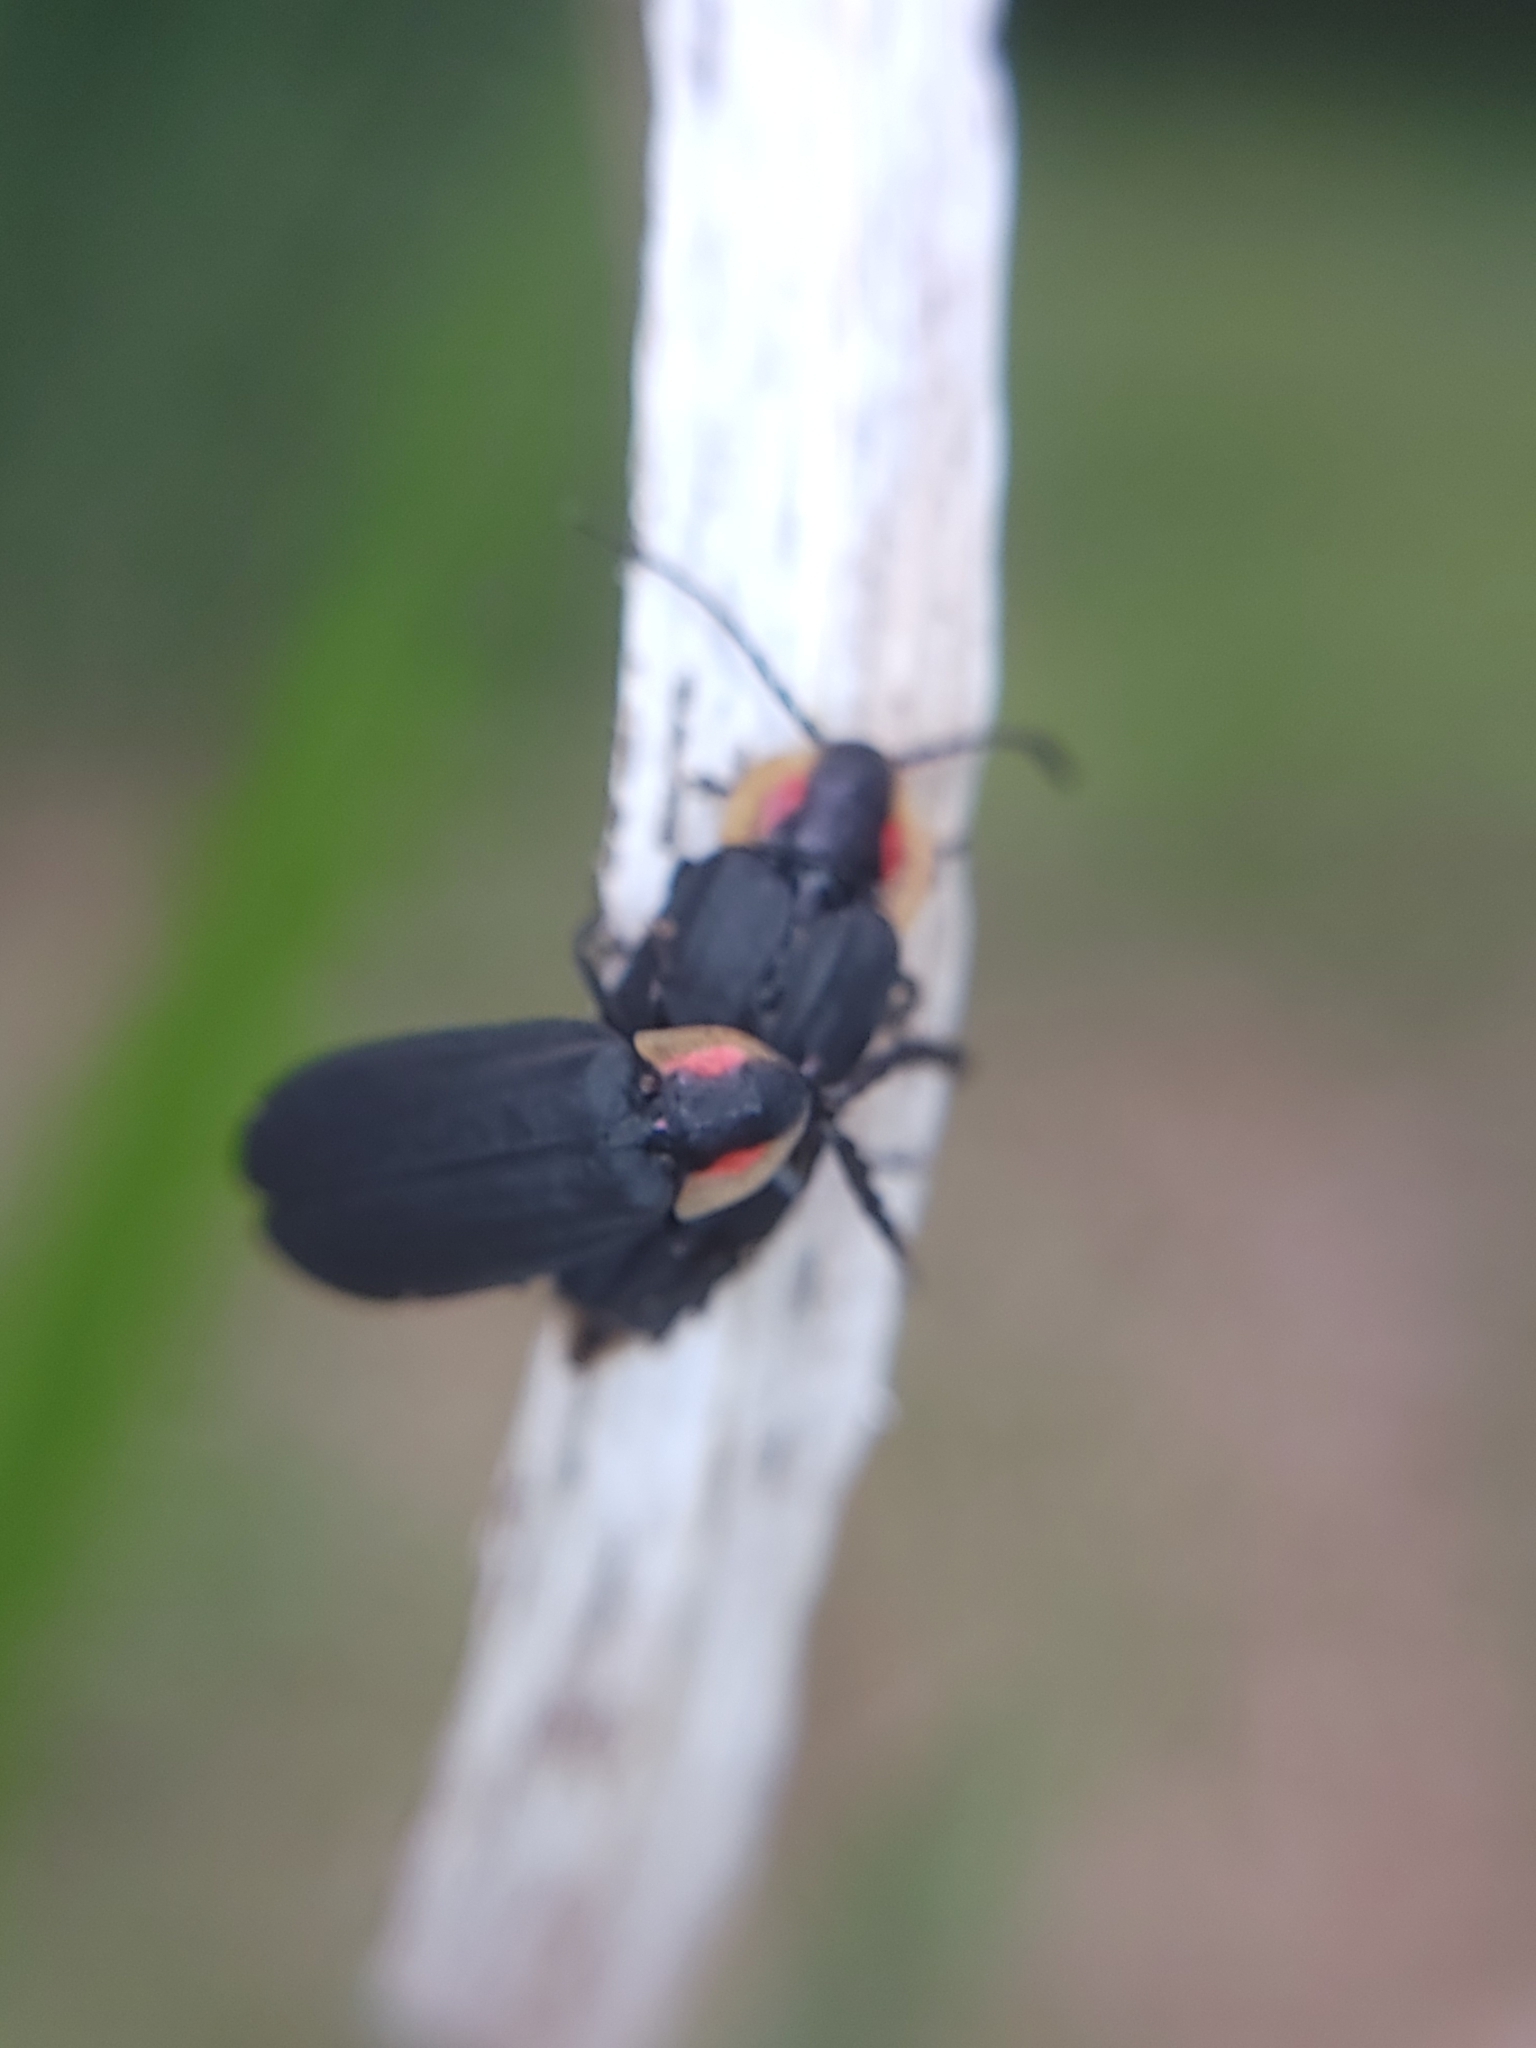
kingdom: Animalia
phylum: Arthropoda
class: Insecta
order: Coleoptera
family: Lampyridae
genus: Lucidota
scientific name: Lucidota atra
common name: Black firefly
